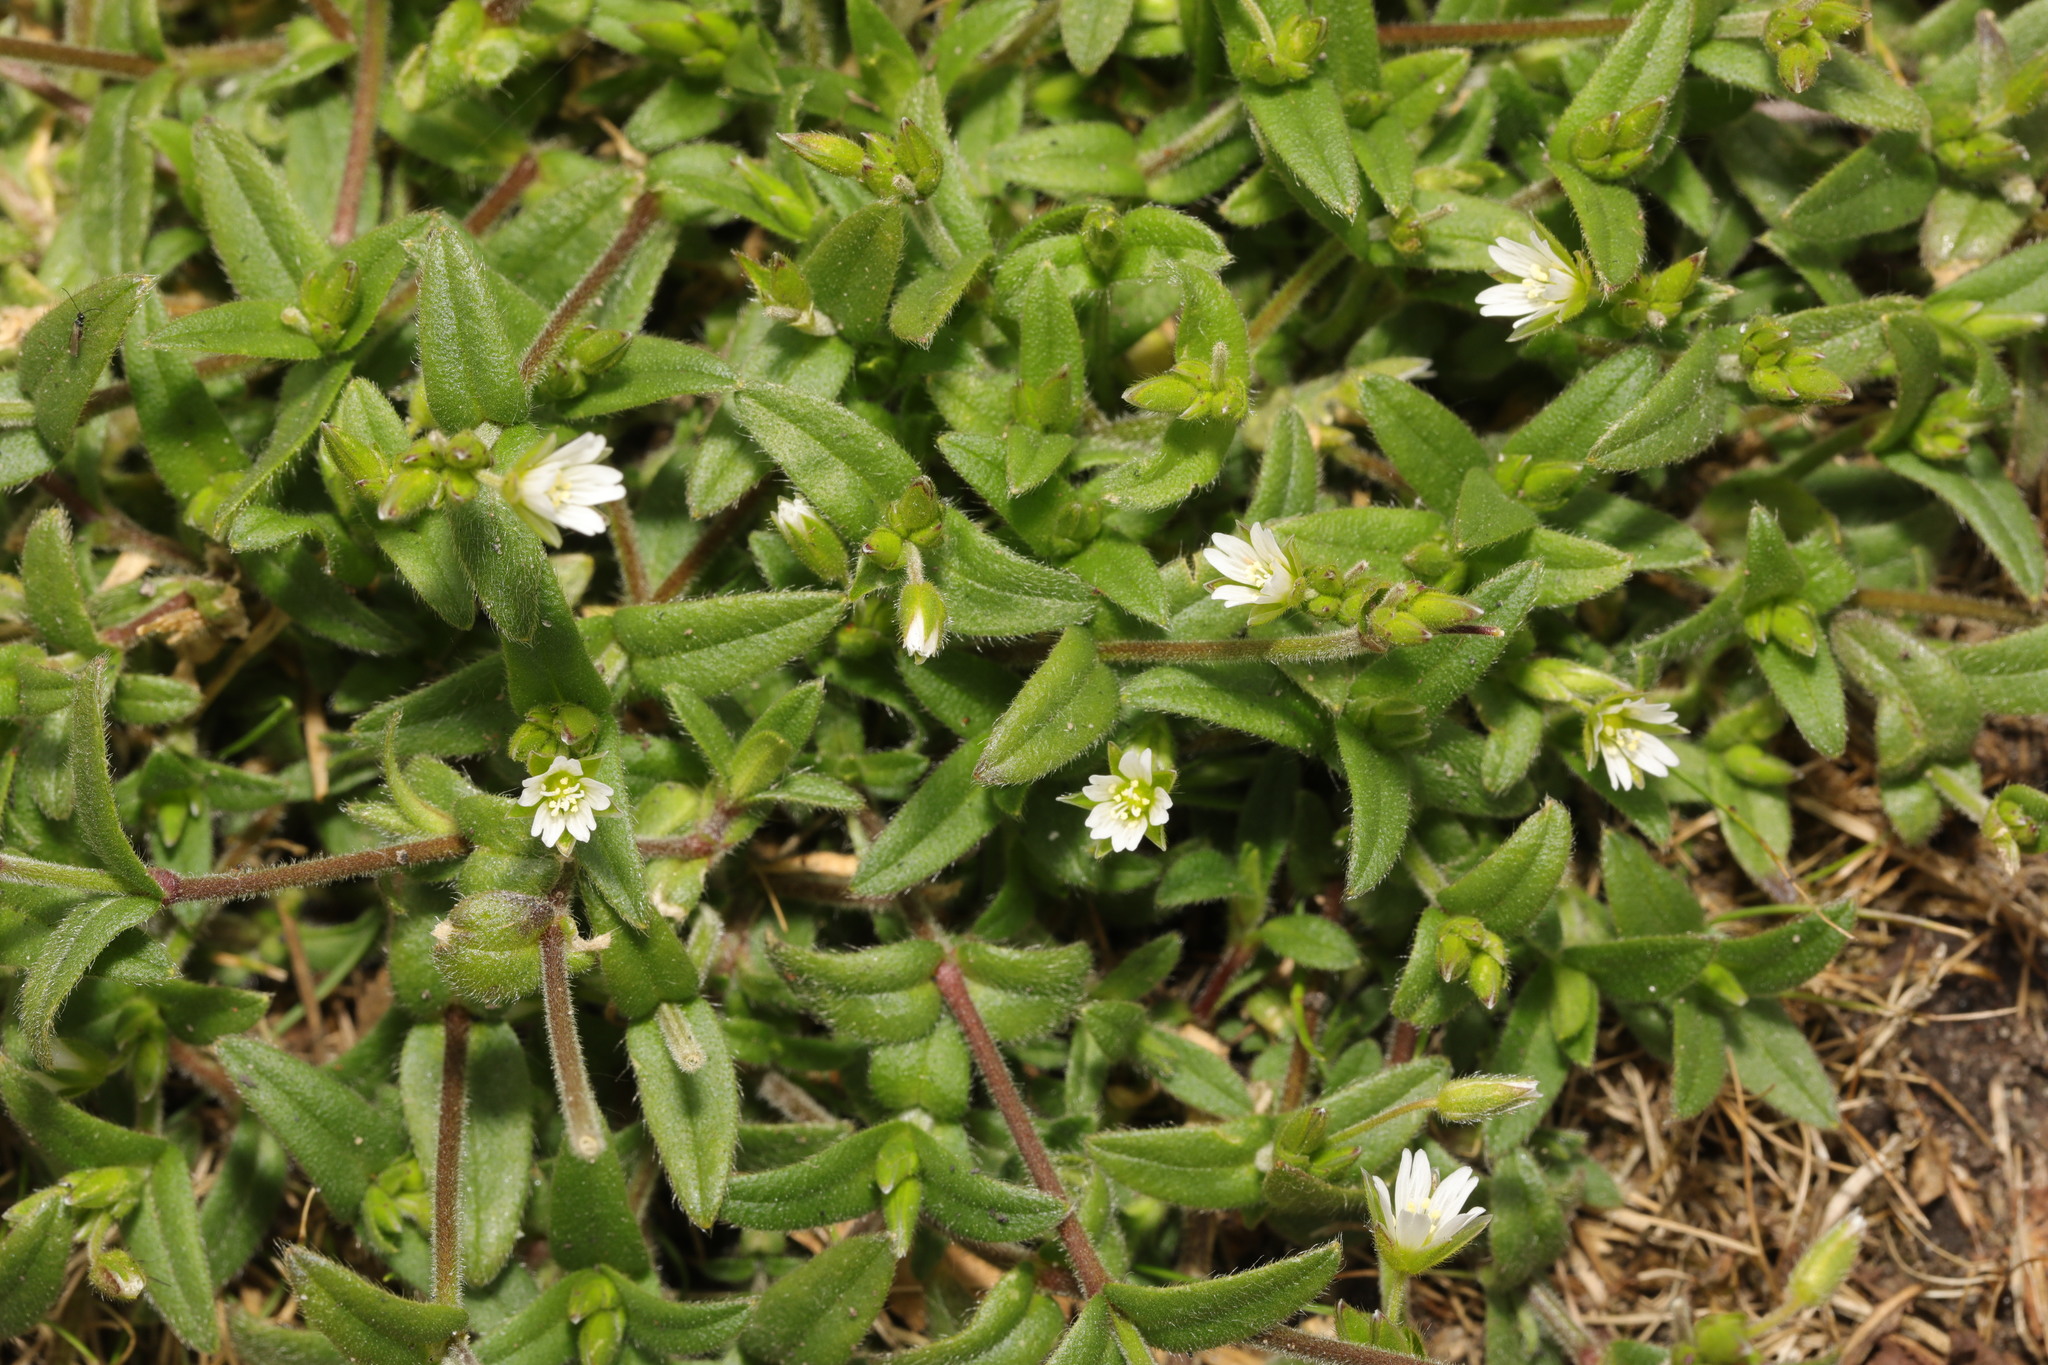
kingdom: Plantae
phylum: Tracheophyta
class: Magnoliopsida
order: Caryophyllales
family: Caryophyllaceae
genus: Cerastium
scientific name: Cerastium fontanum
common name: Common mouse-ear
